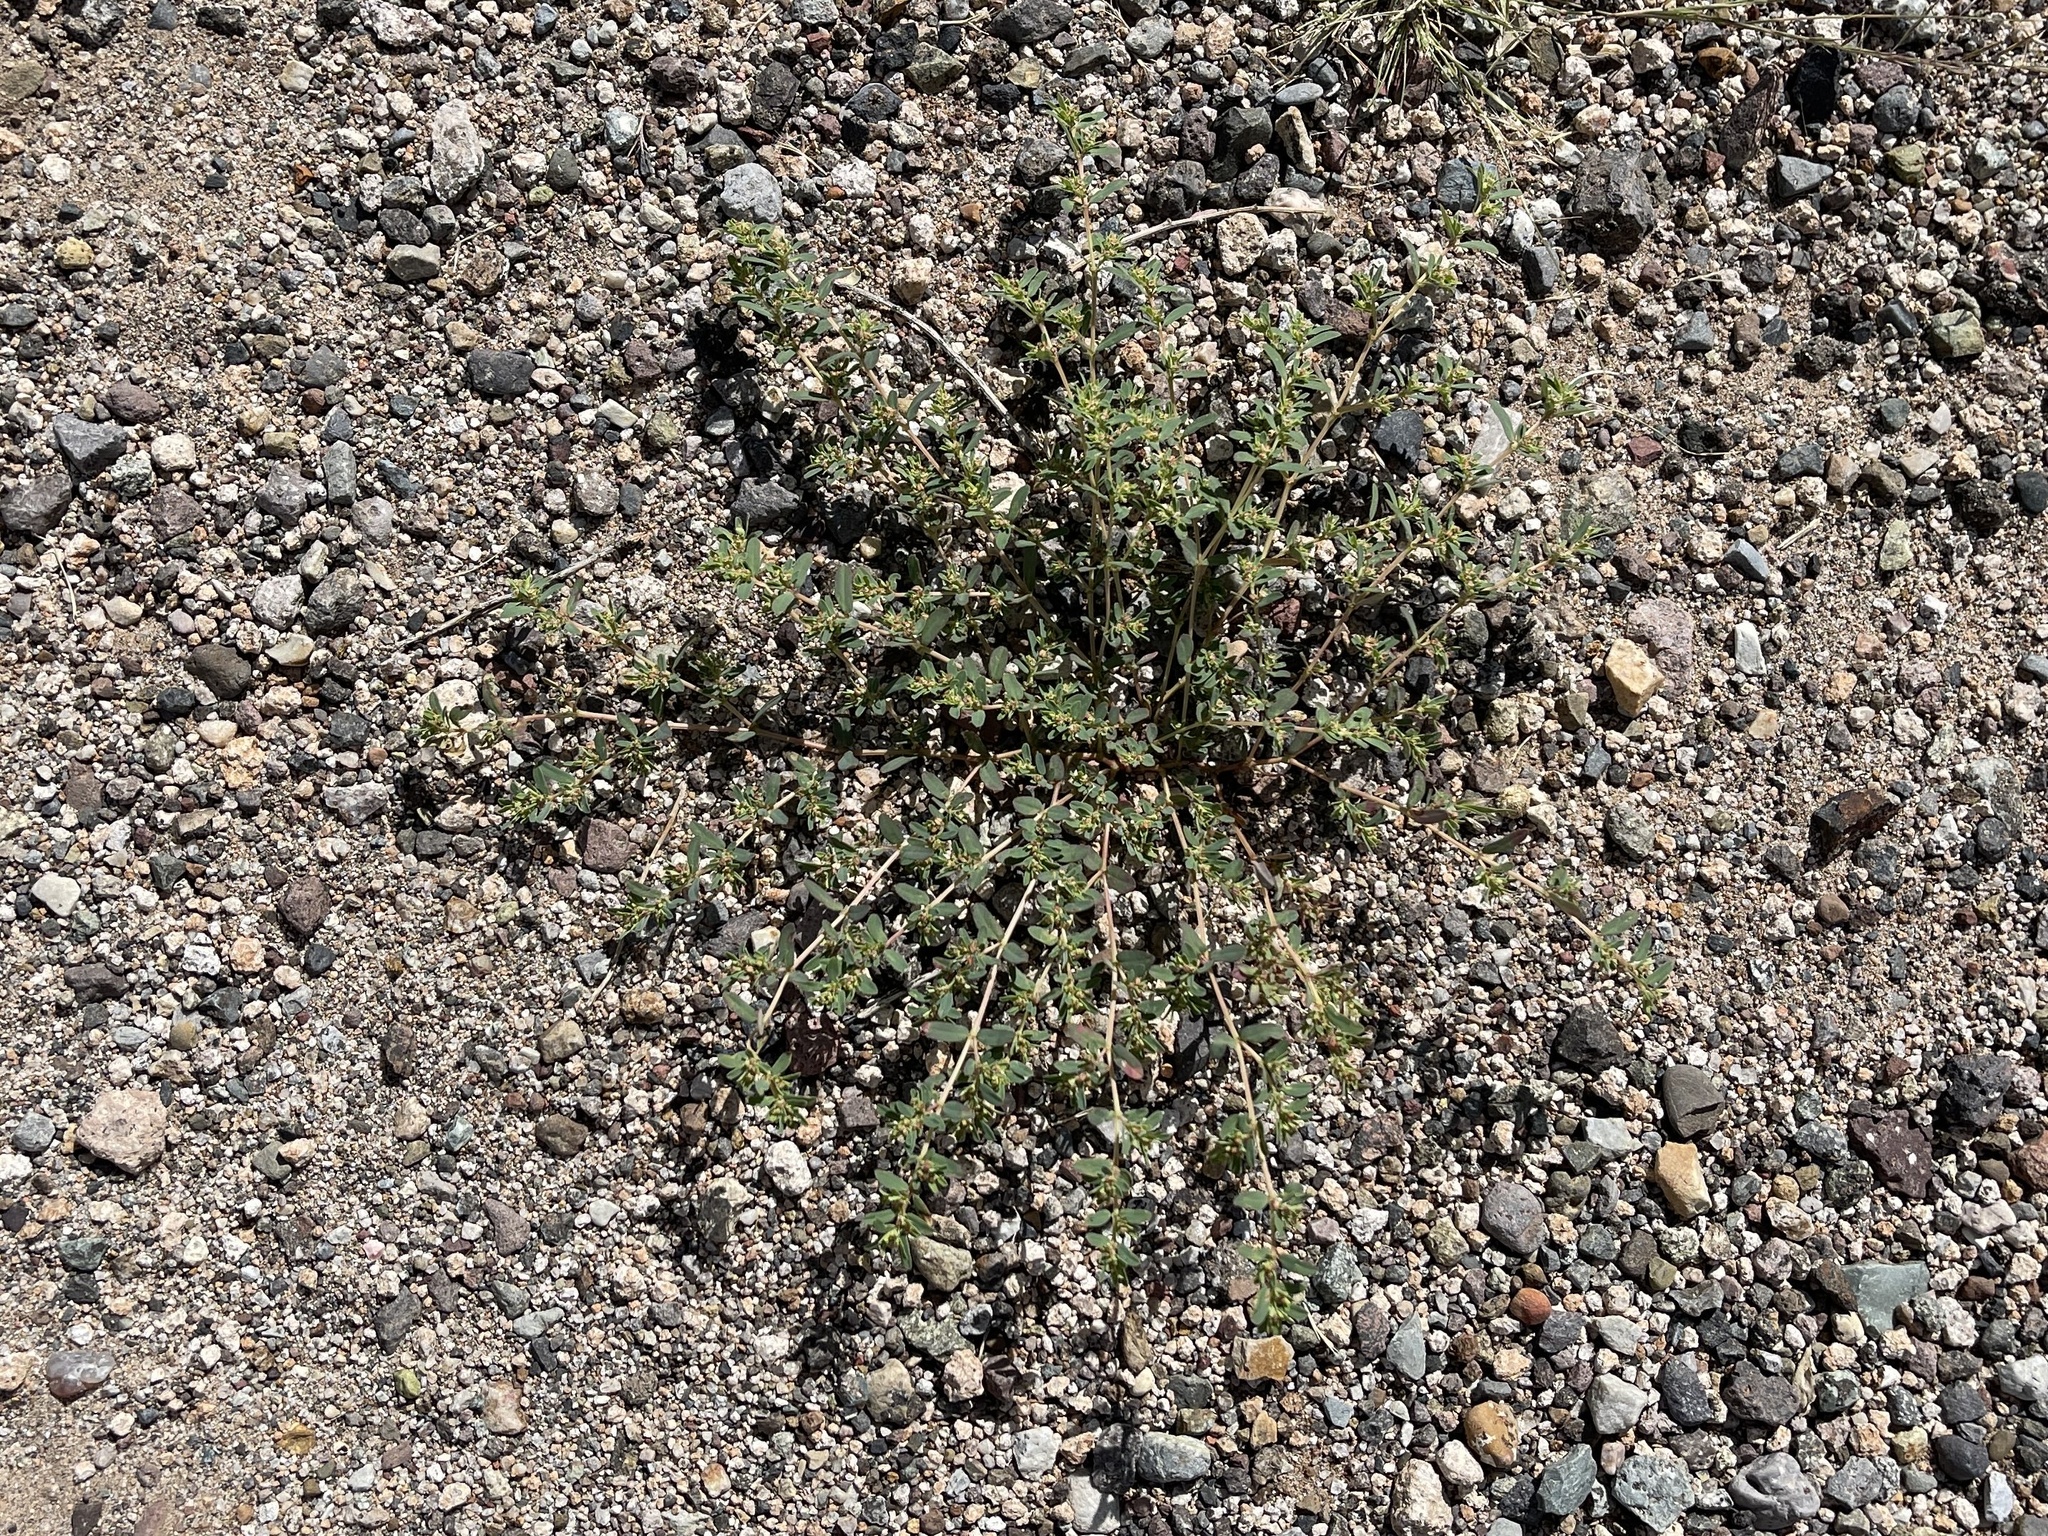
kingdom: Plantae
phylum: Tracheophyta
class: Magnoliopsida
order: Malpighiales
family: Euphorbiaceae
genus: Euphorbia
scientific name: Euphorbia serpillifolia
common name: Thyme-leaf spurge
